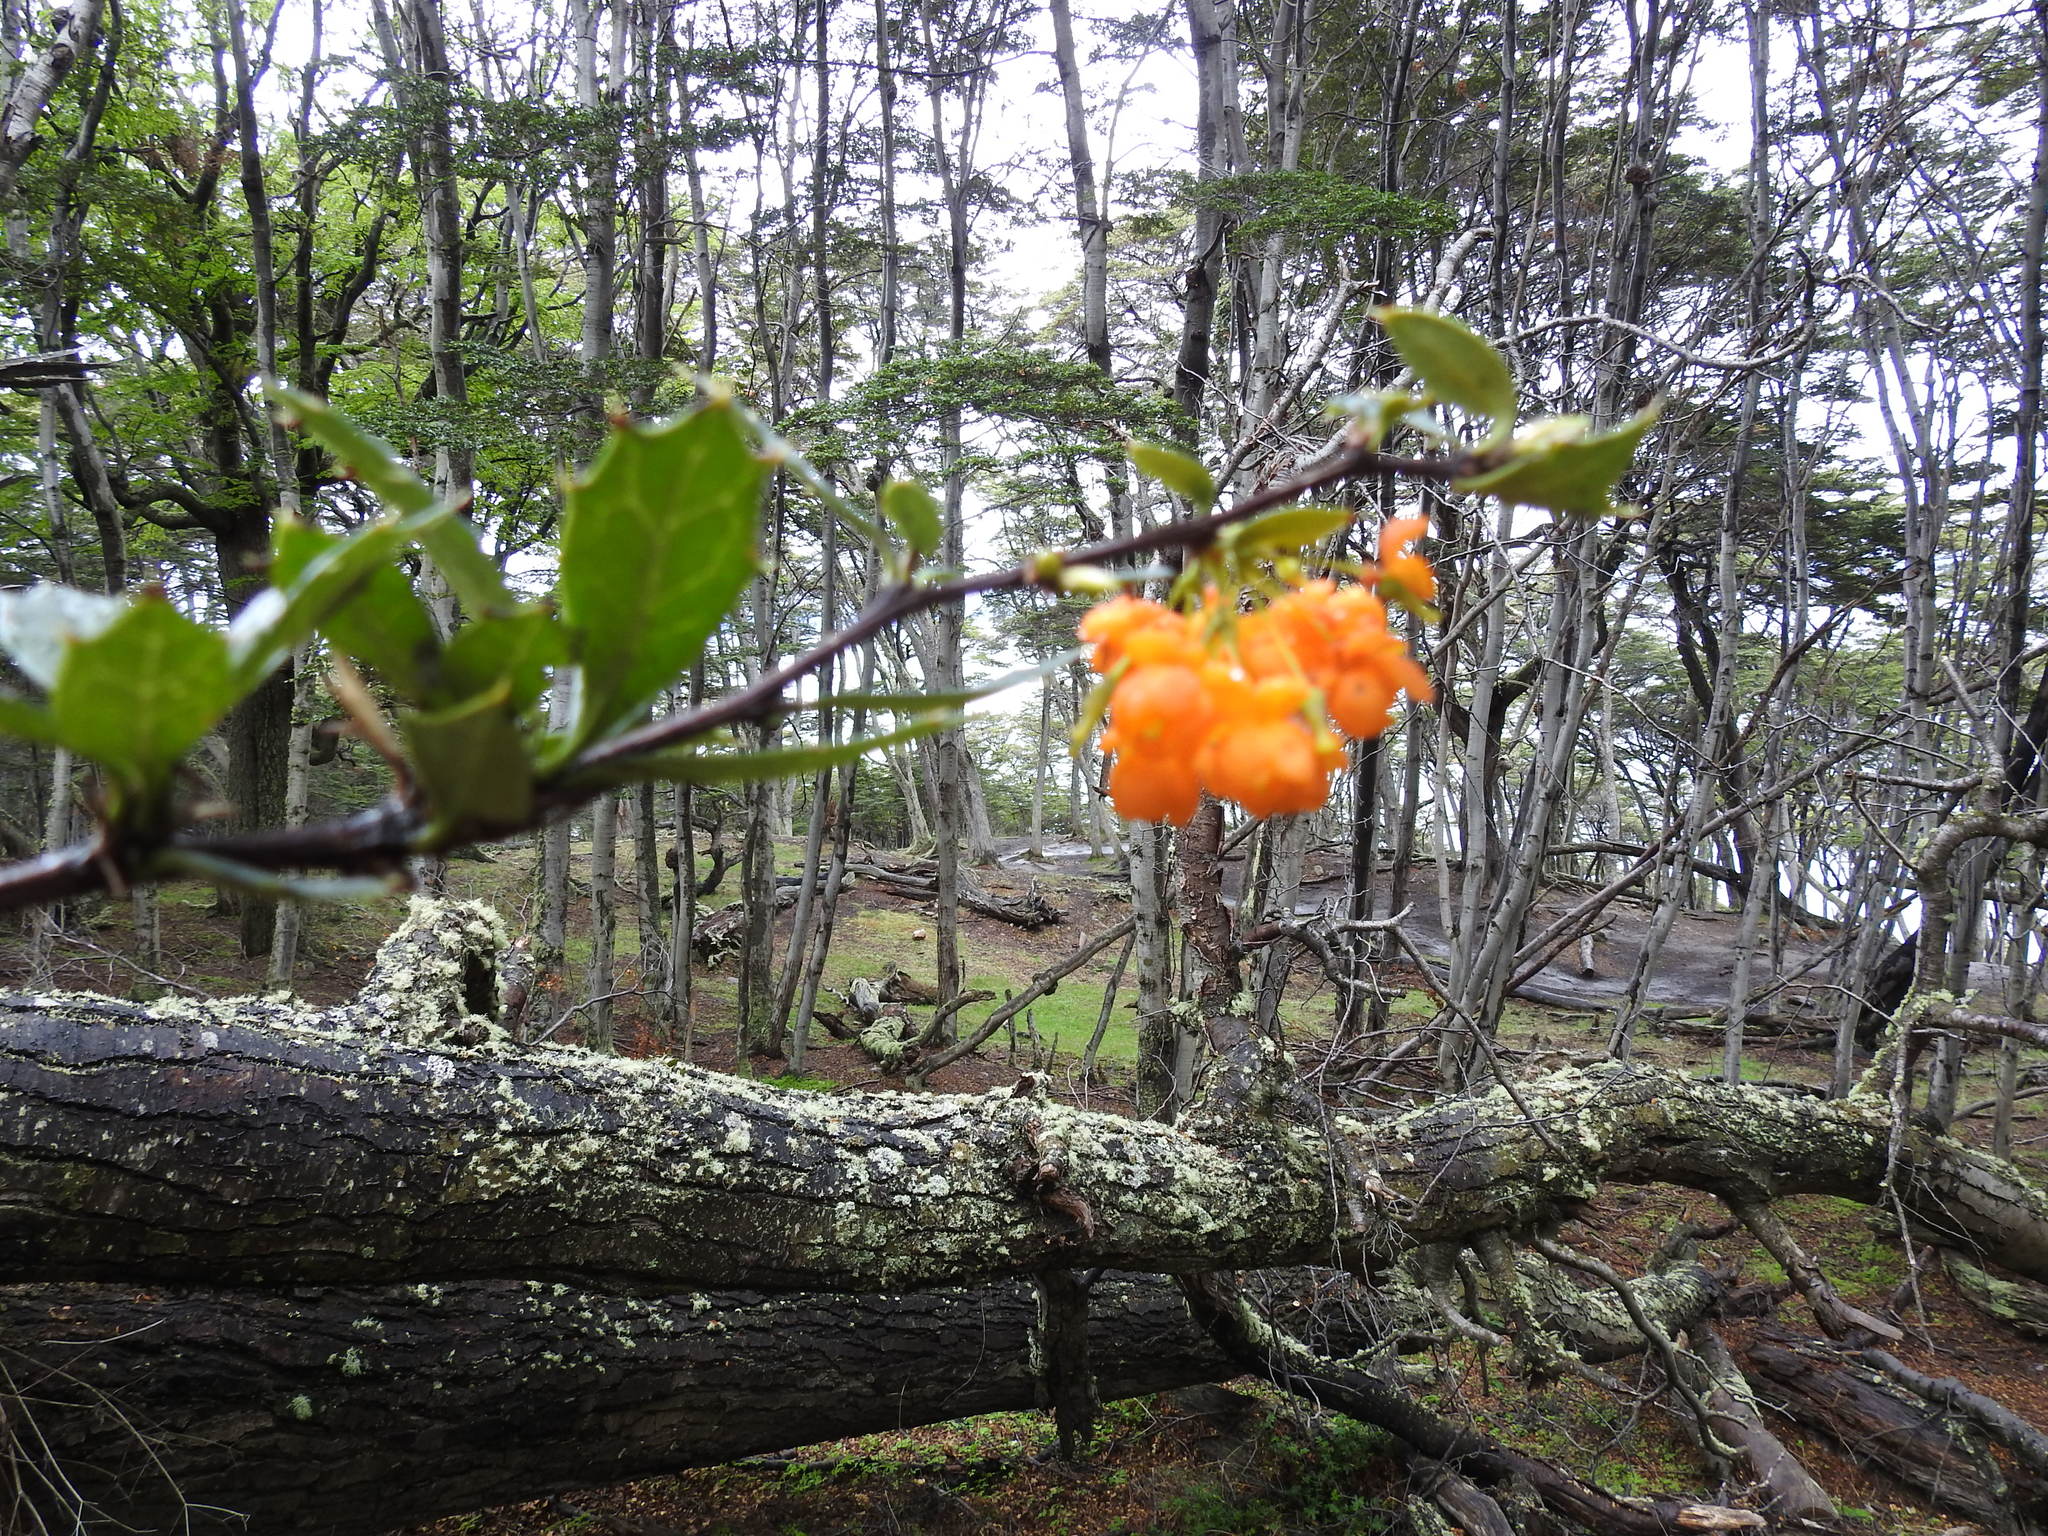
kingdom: Plantae
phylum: Tracheophyta
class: Magnoliopsida
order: Ranunculales
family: Berberidaceae
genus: Berberis
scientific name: Berberis ilicifolia
